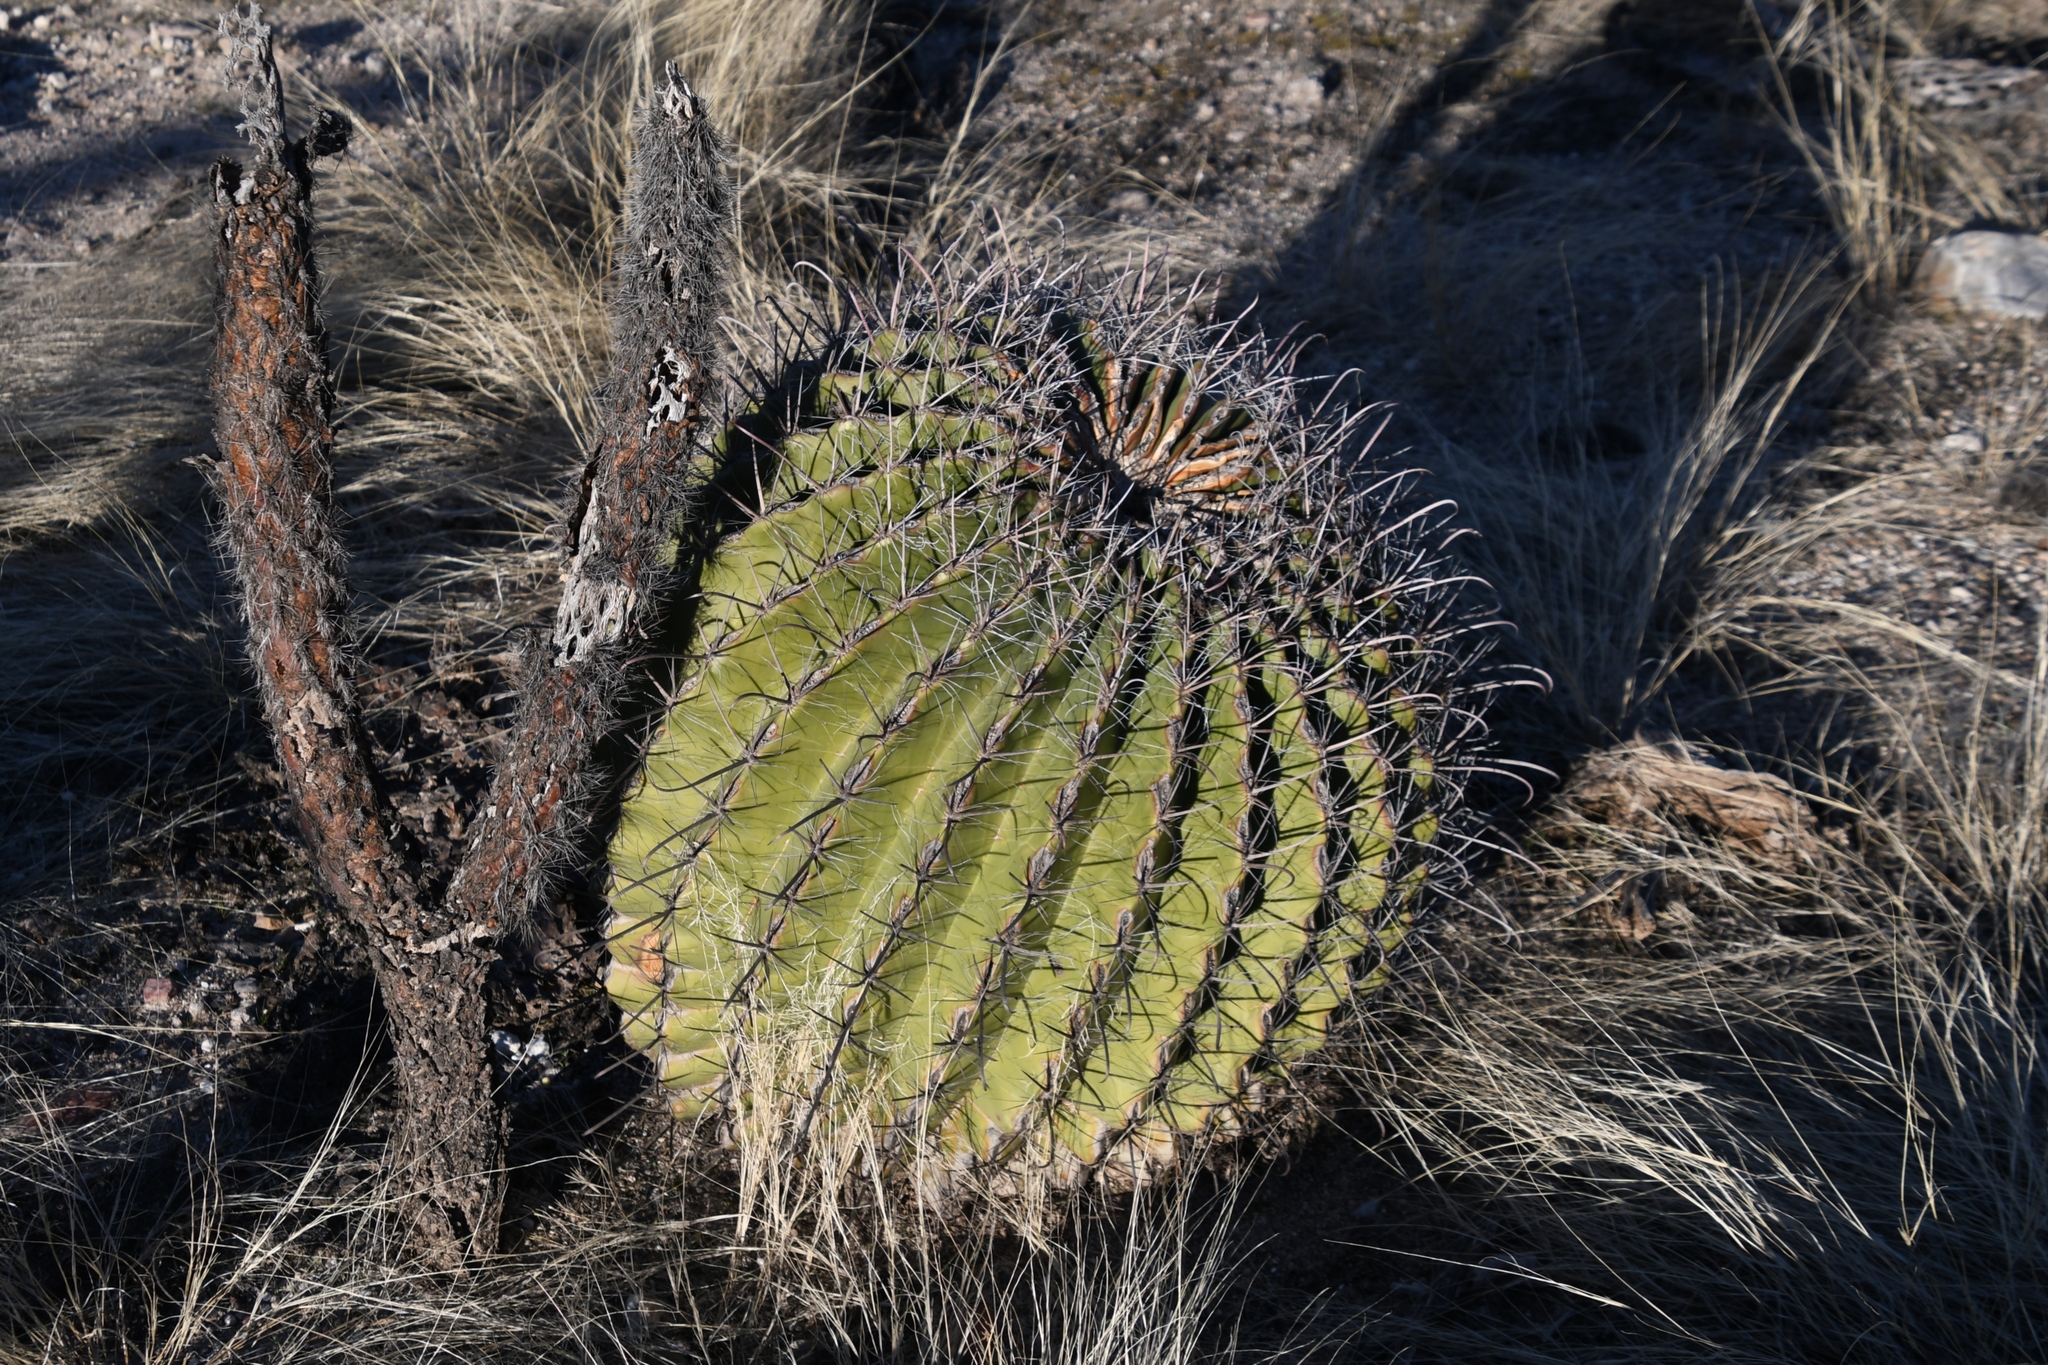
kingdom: Plantae
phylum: Tracheophyta
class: Magnoliopsida
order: Caryophyllales
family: Cactaceae
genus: Ferocactus
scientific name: Ferocactus wislizeni
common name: Candy barrel cactus
